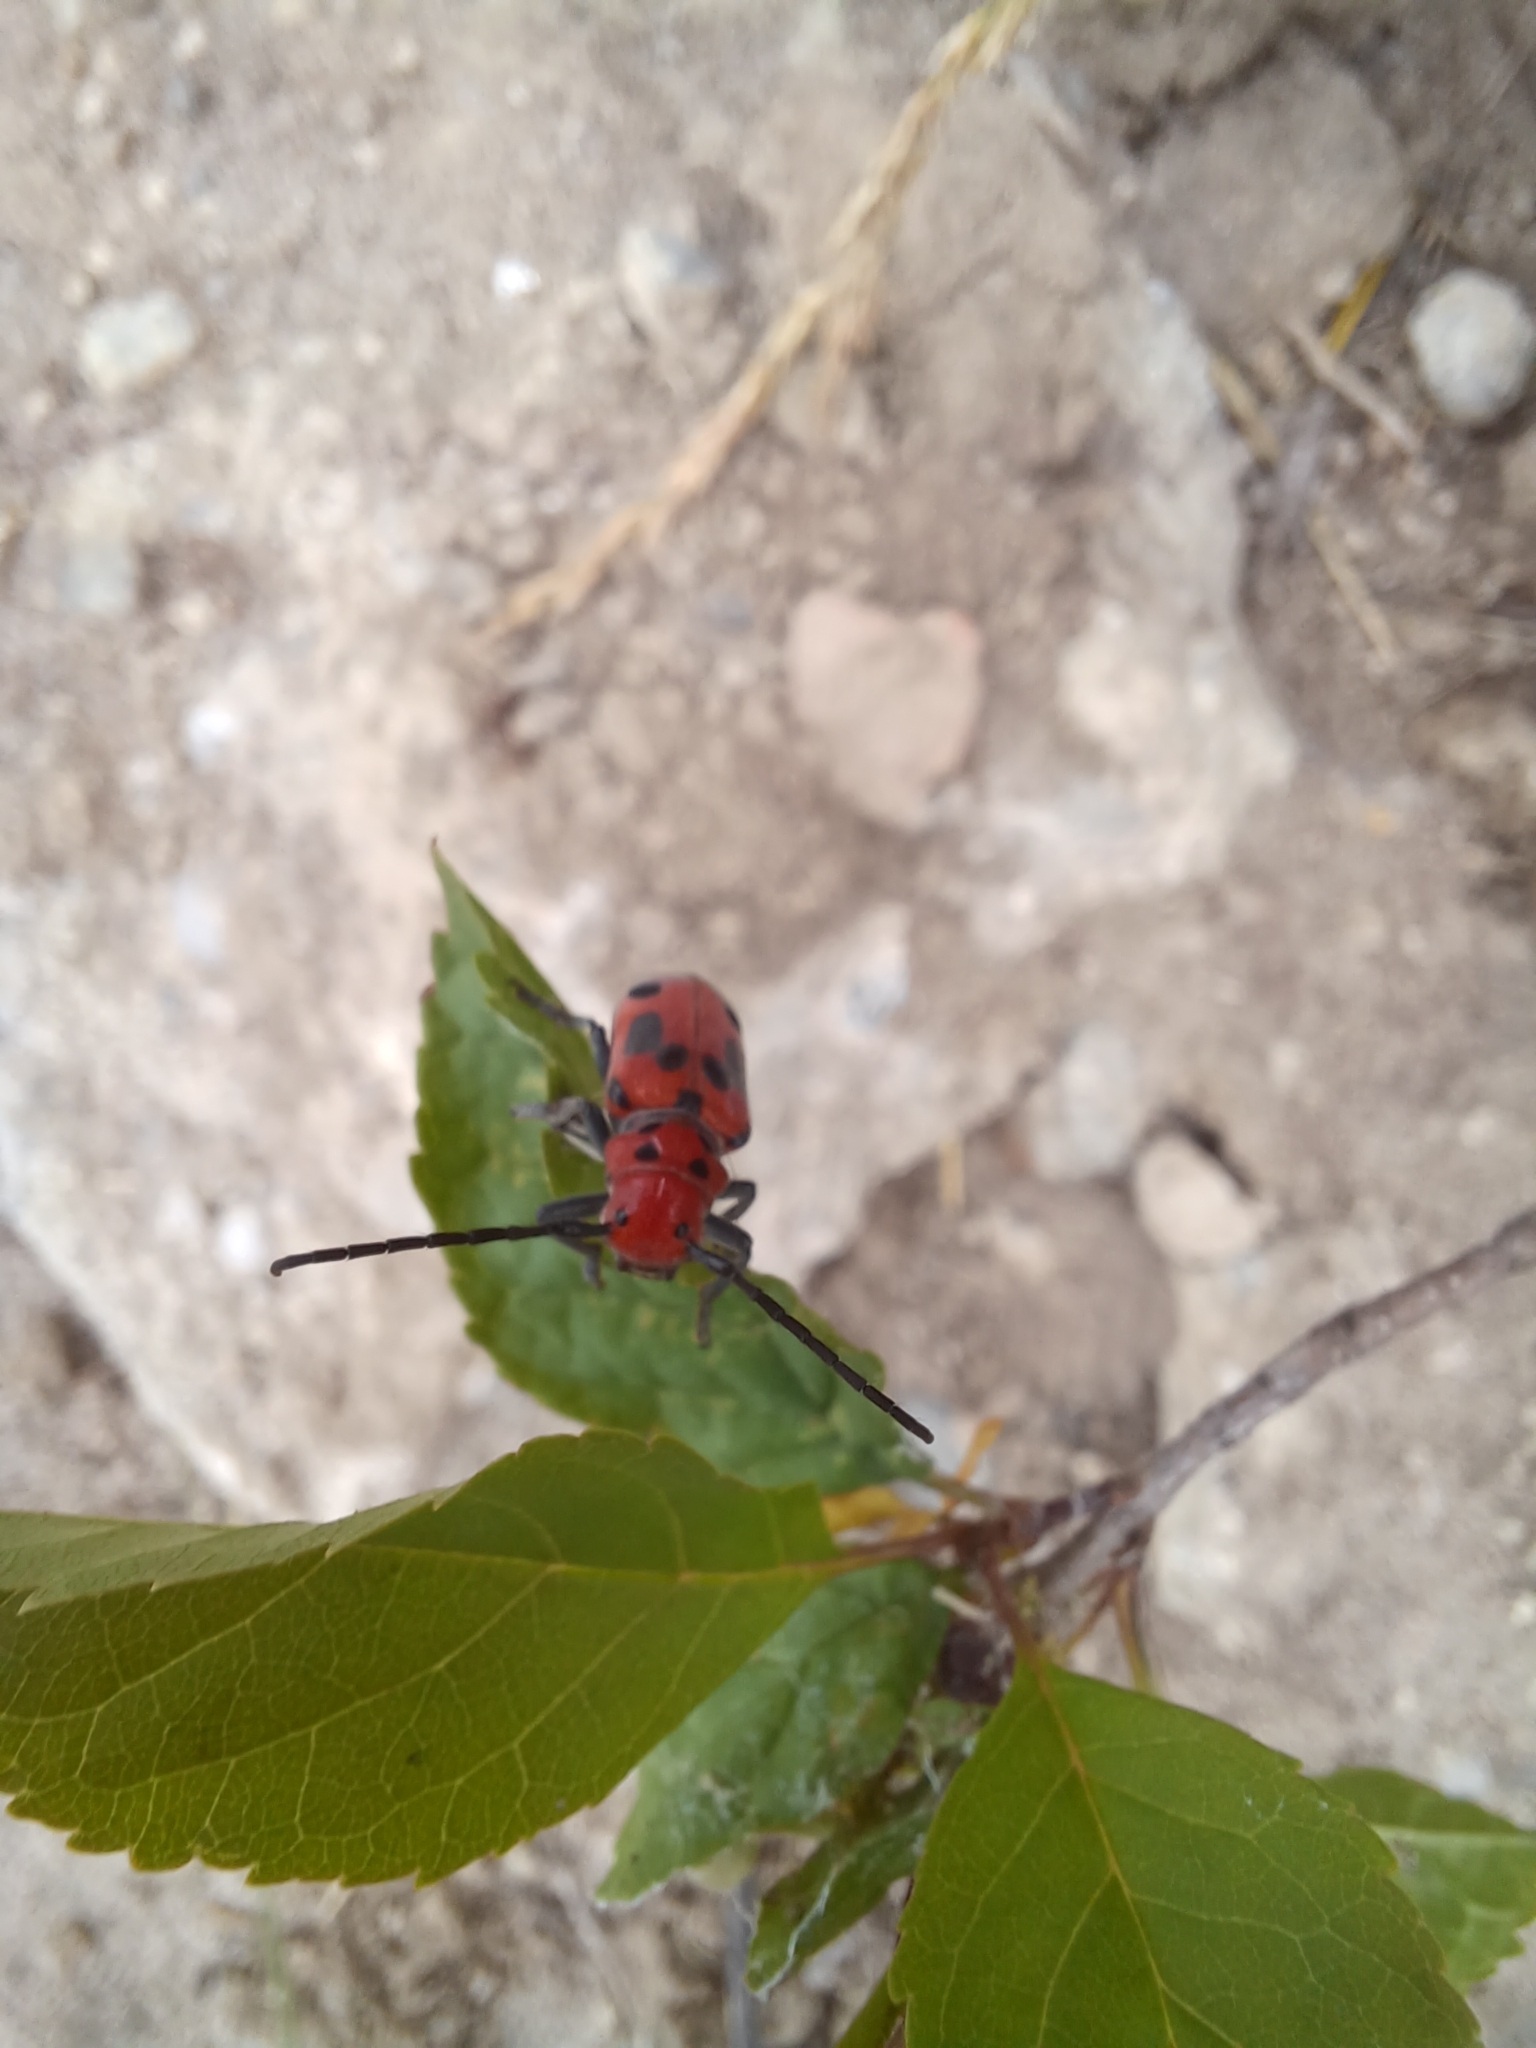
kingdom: Animalia
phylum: Arthropoda
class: Insecta
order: Coleoptera
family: Cerambycidae
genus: Tetraopes
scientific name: Tetraopes tetrophthalmus
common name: Red milkweed beetle
